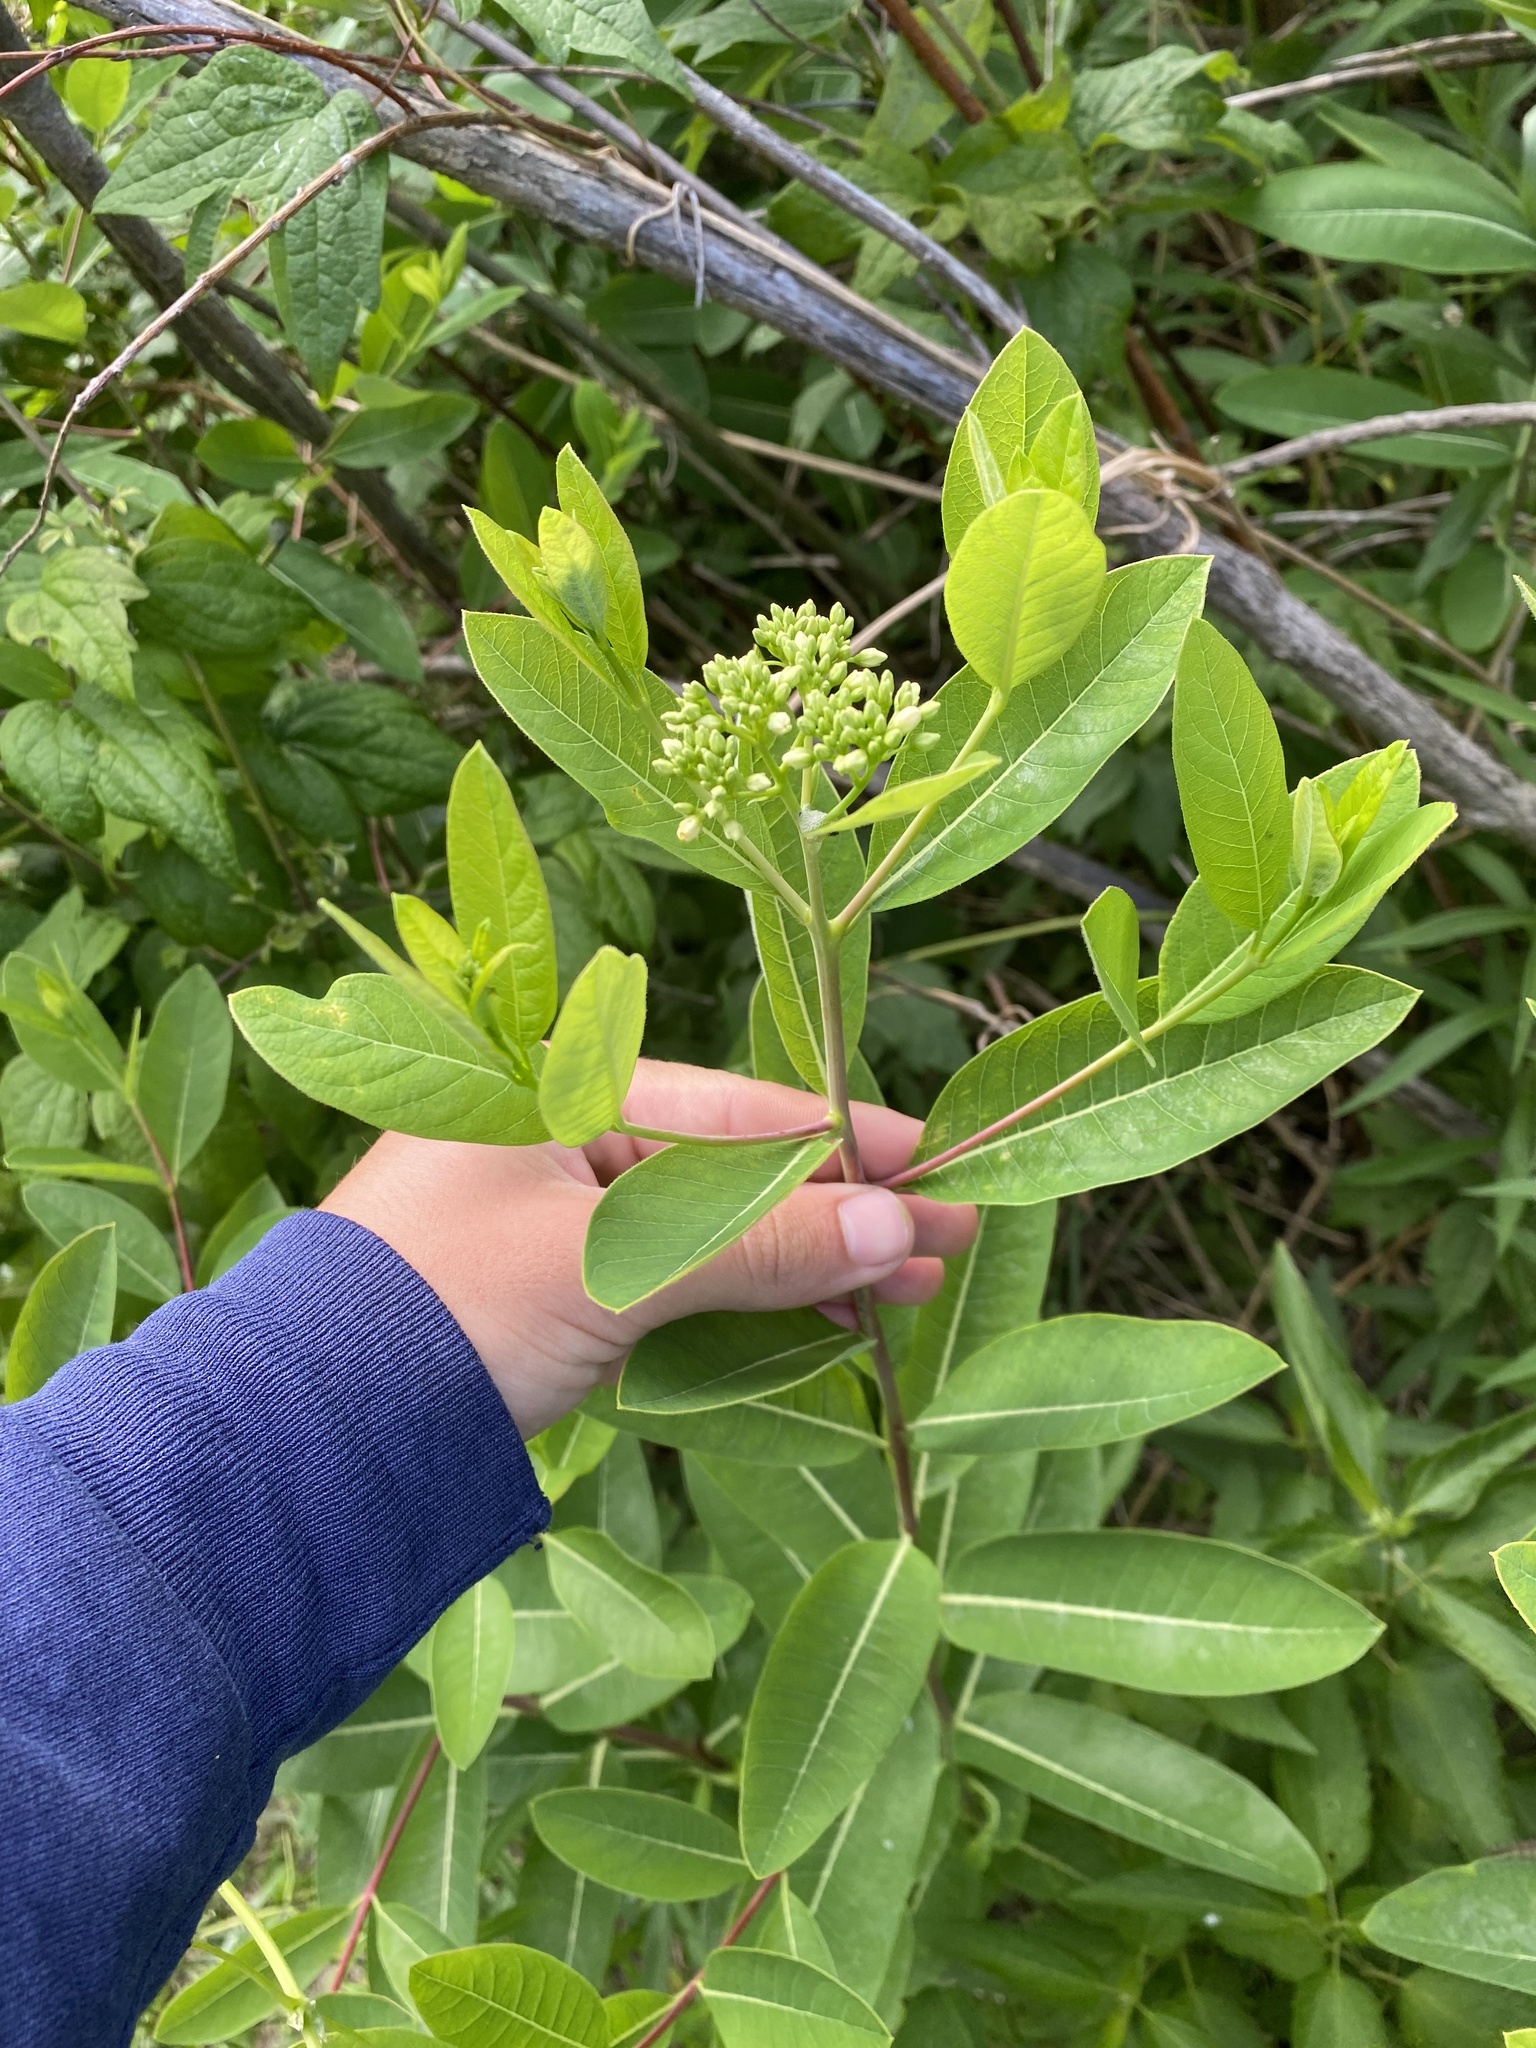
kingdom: Plantae
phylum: Tracheophyta
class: Magnoliopsida
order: Gentianales
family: Apocynaceae
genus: Apocynum
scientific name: Apocynum cannabinum
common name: Hemp dogbane
